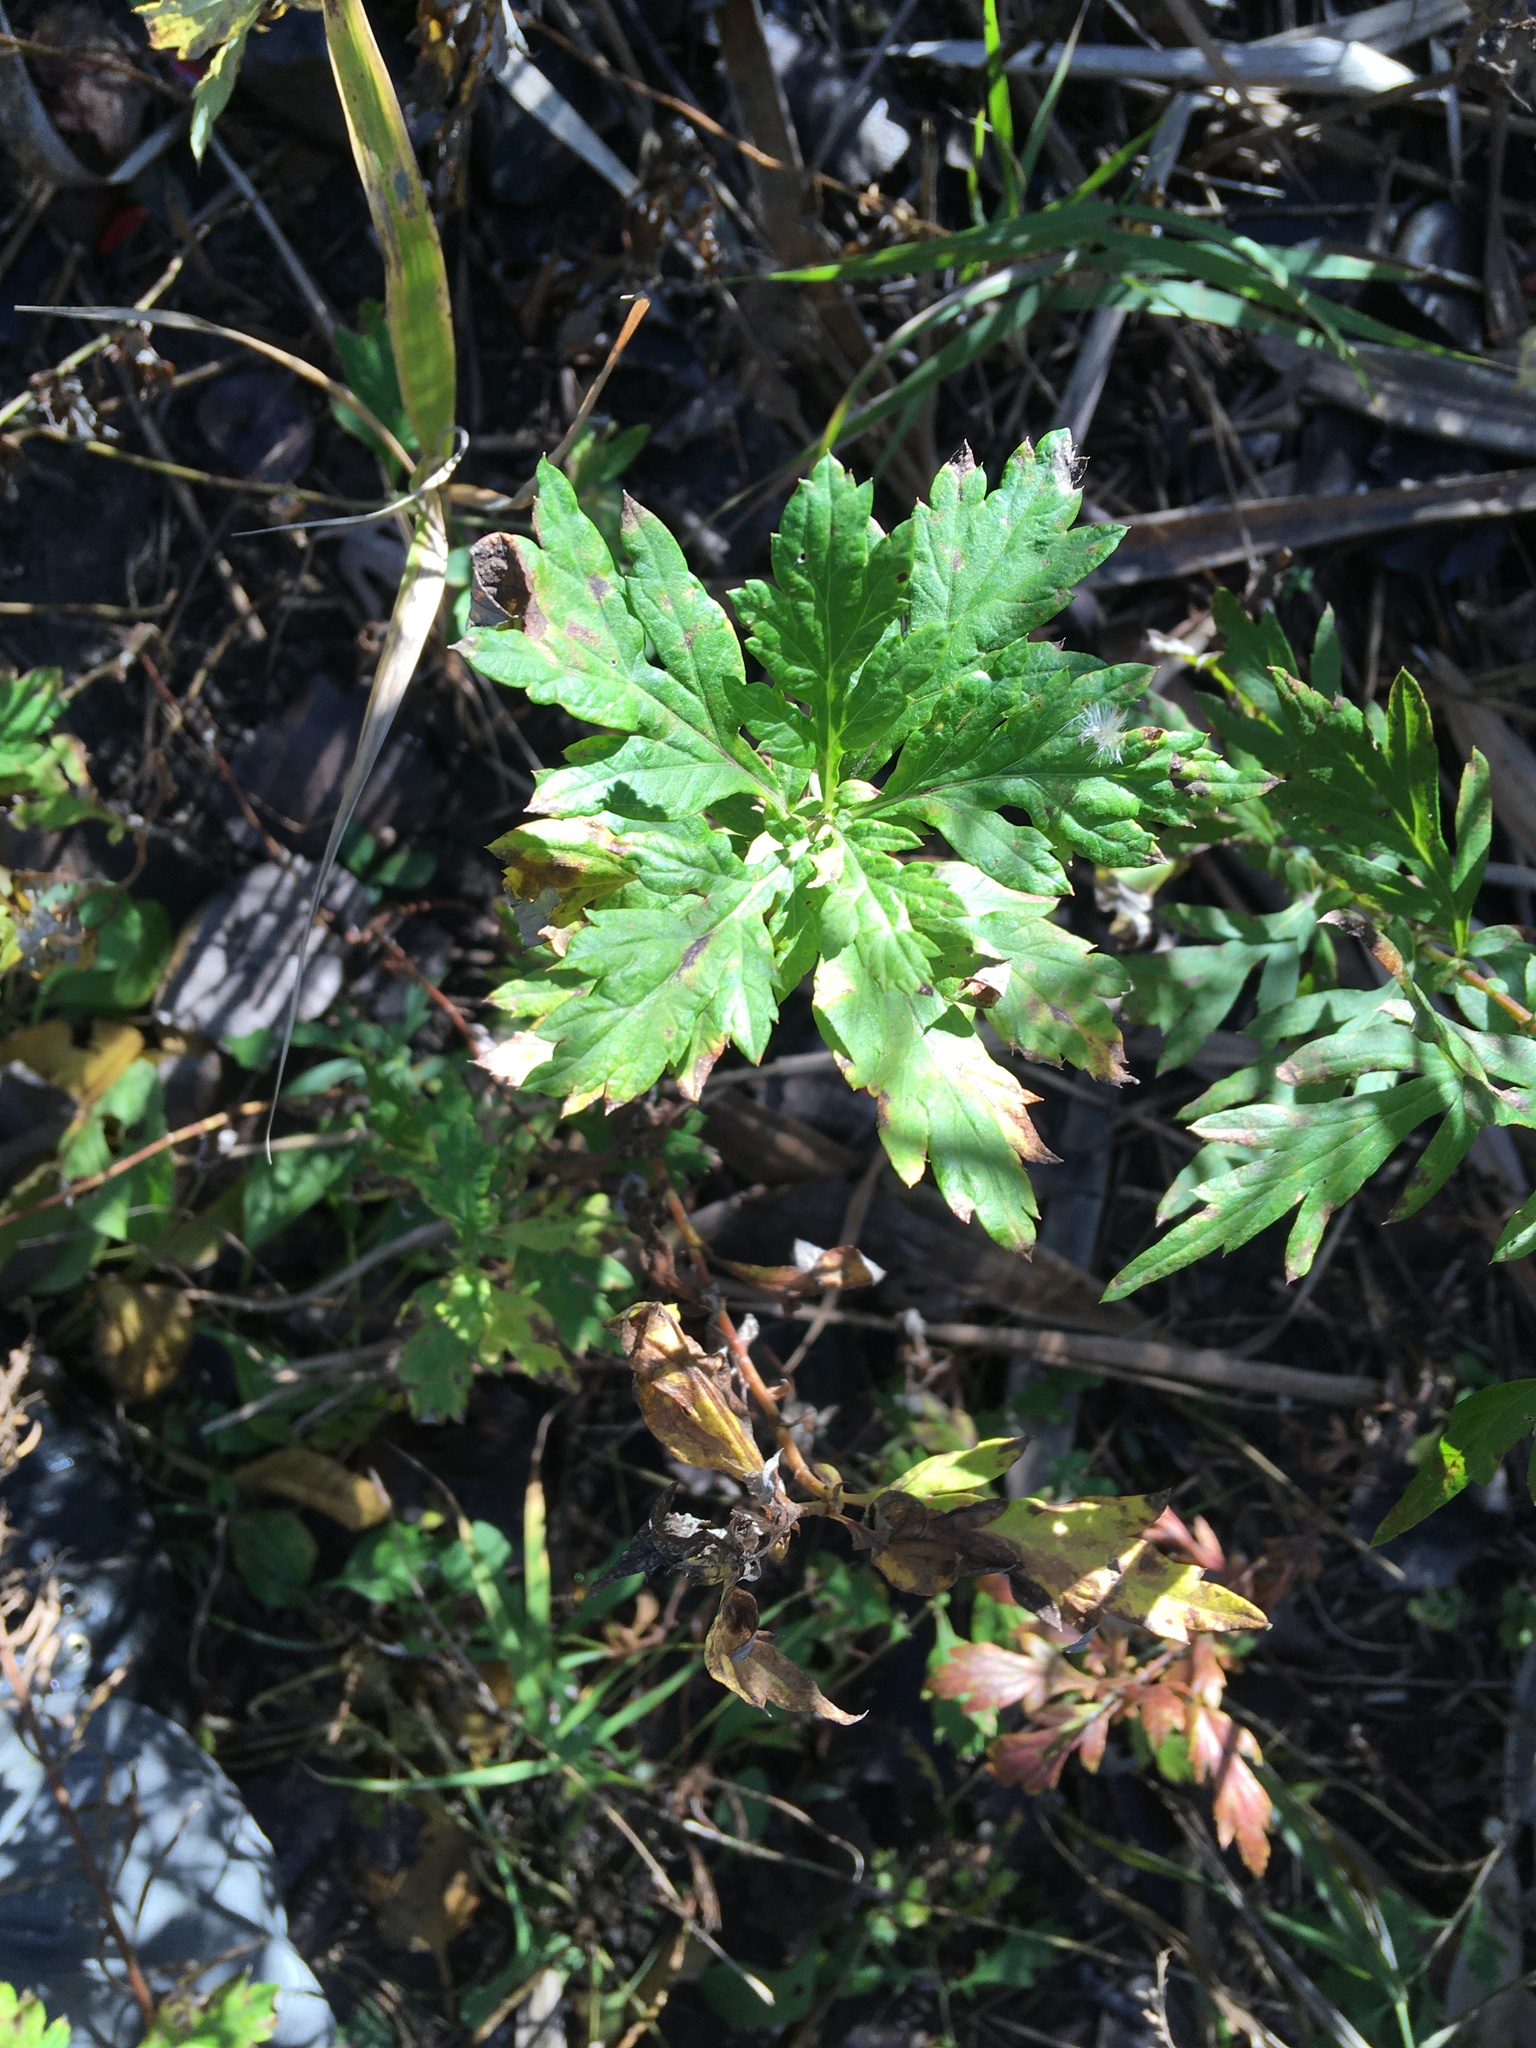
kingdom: Plantae
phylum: Tracheophyta
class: Magnoliopsida
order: Asterales
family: Asteraceae
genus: Artemisia
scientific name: Artemisia vulgaris
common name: Mugwort
